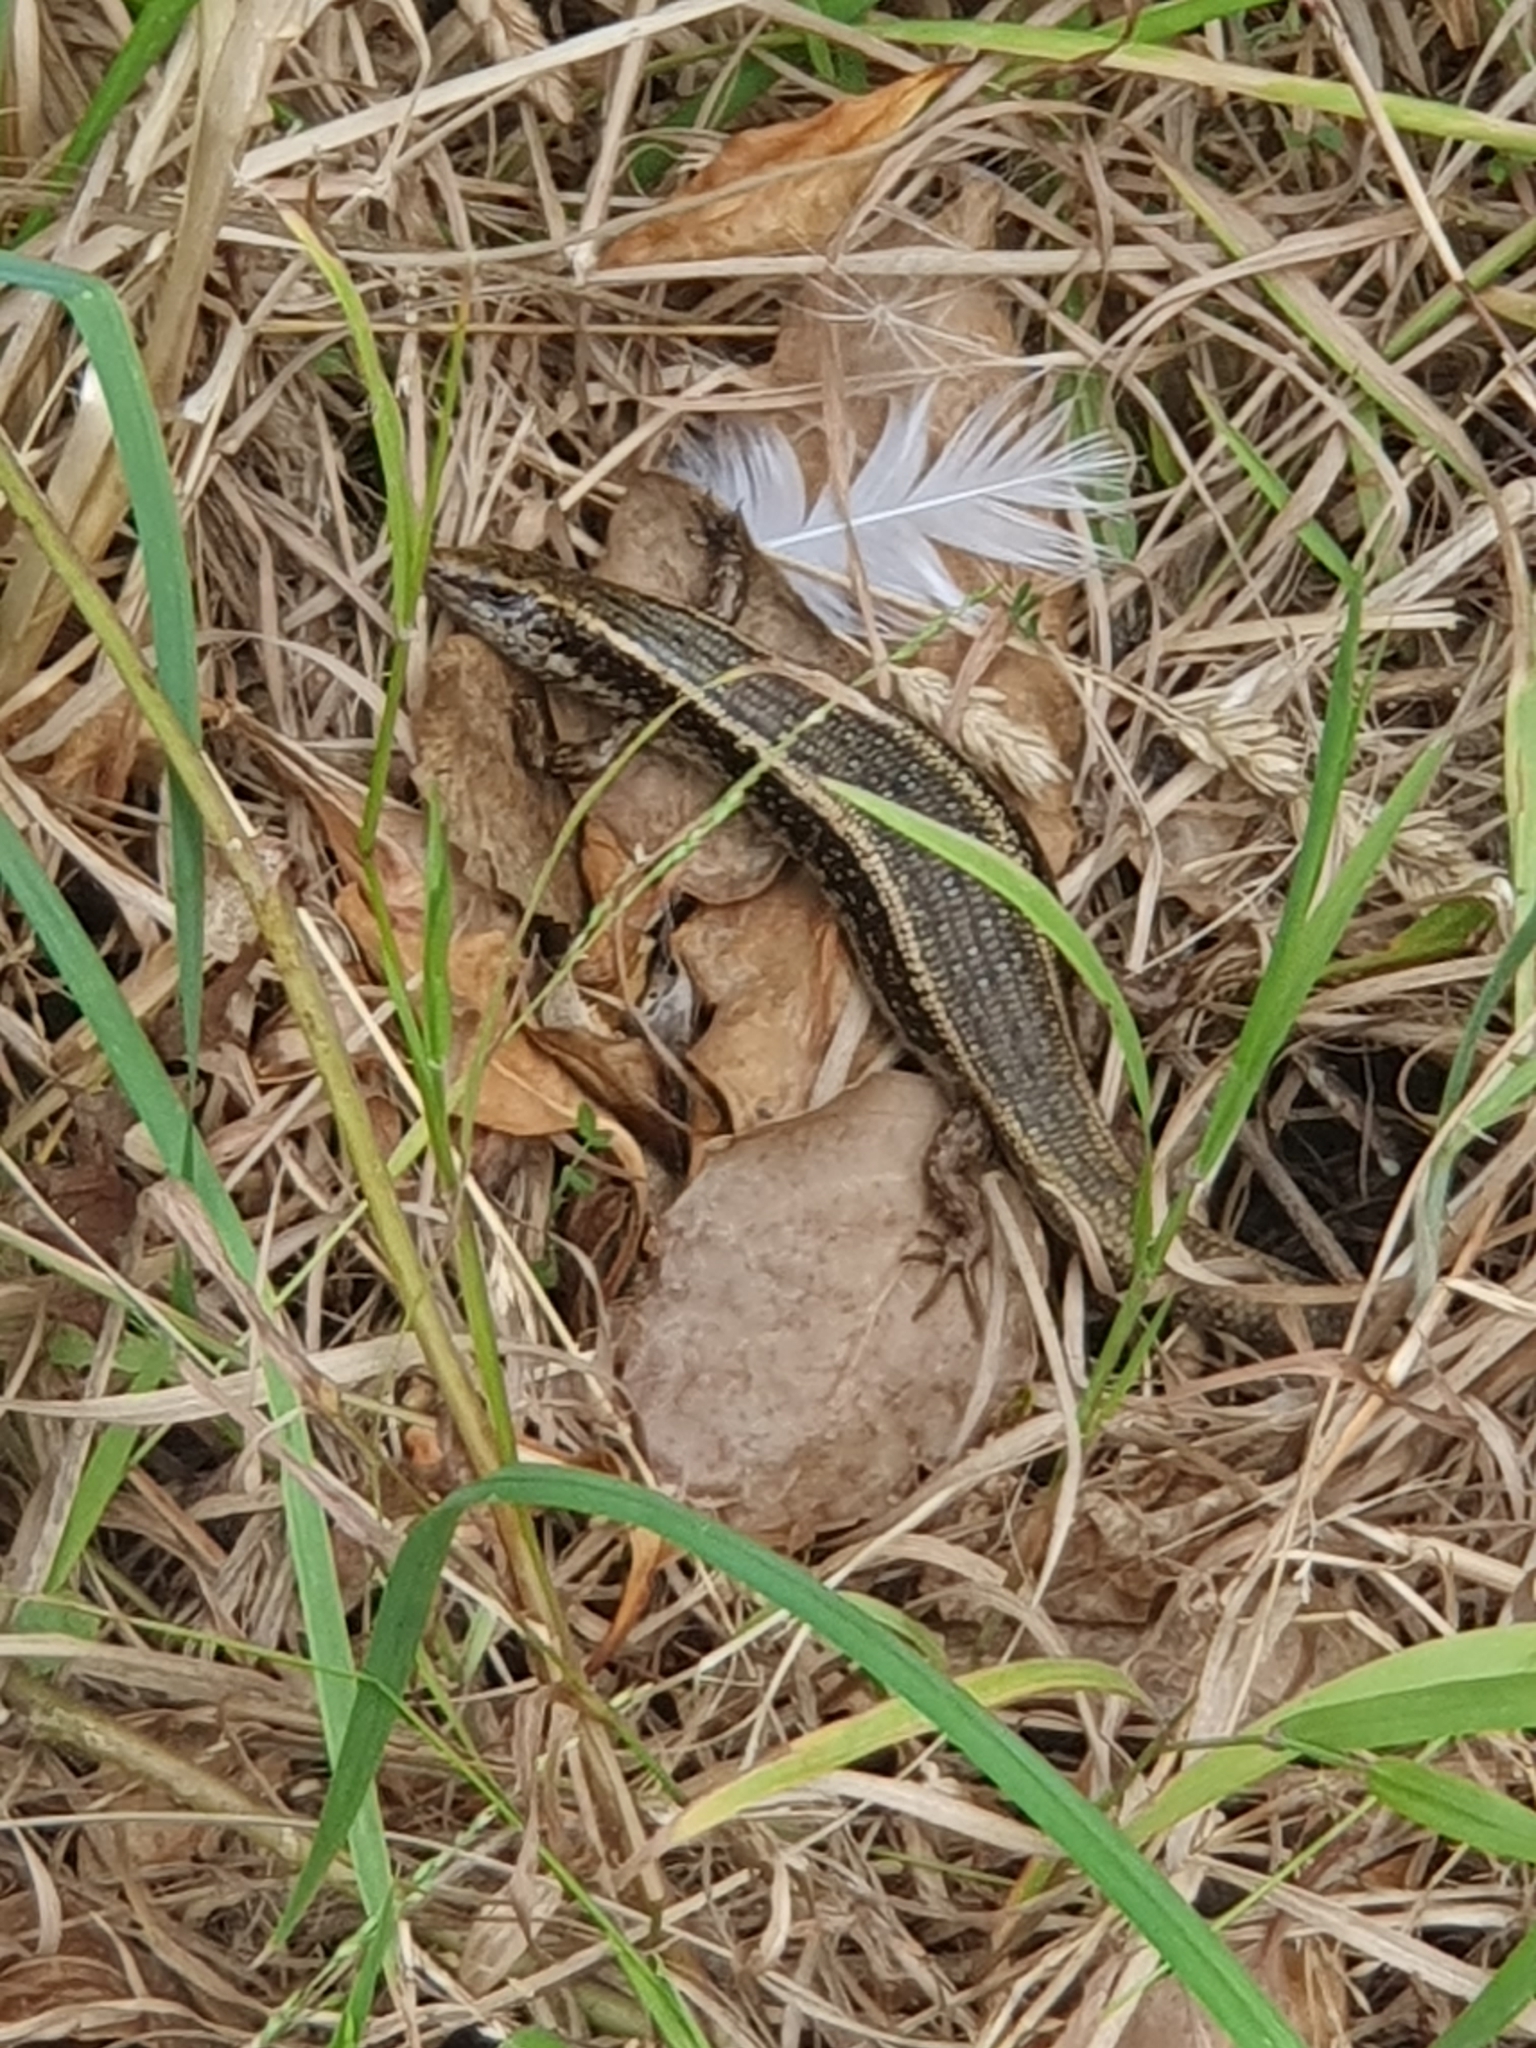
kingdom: Animalia
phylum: Chordata
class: Squamata
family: Scincidae
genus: Oligosoma
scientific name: Oligosoma kokowai
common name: Northern spotted skink
